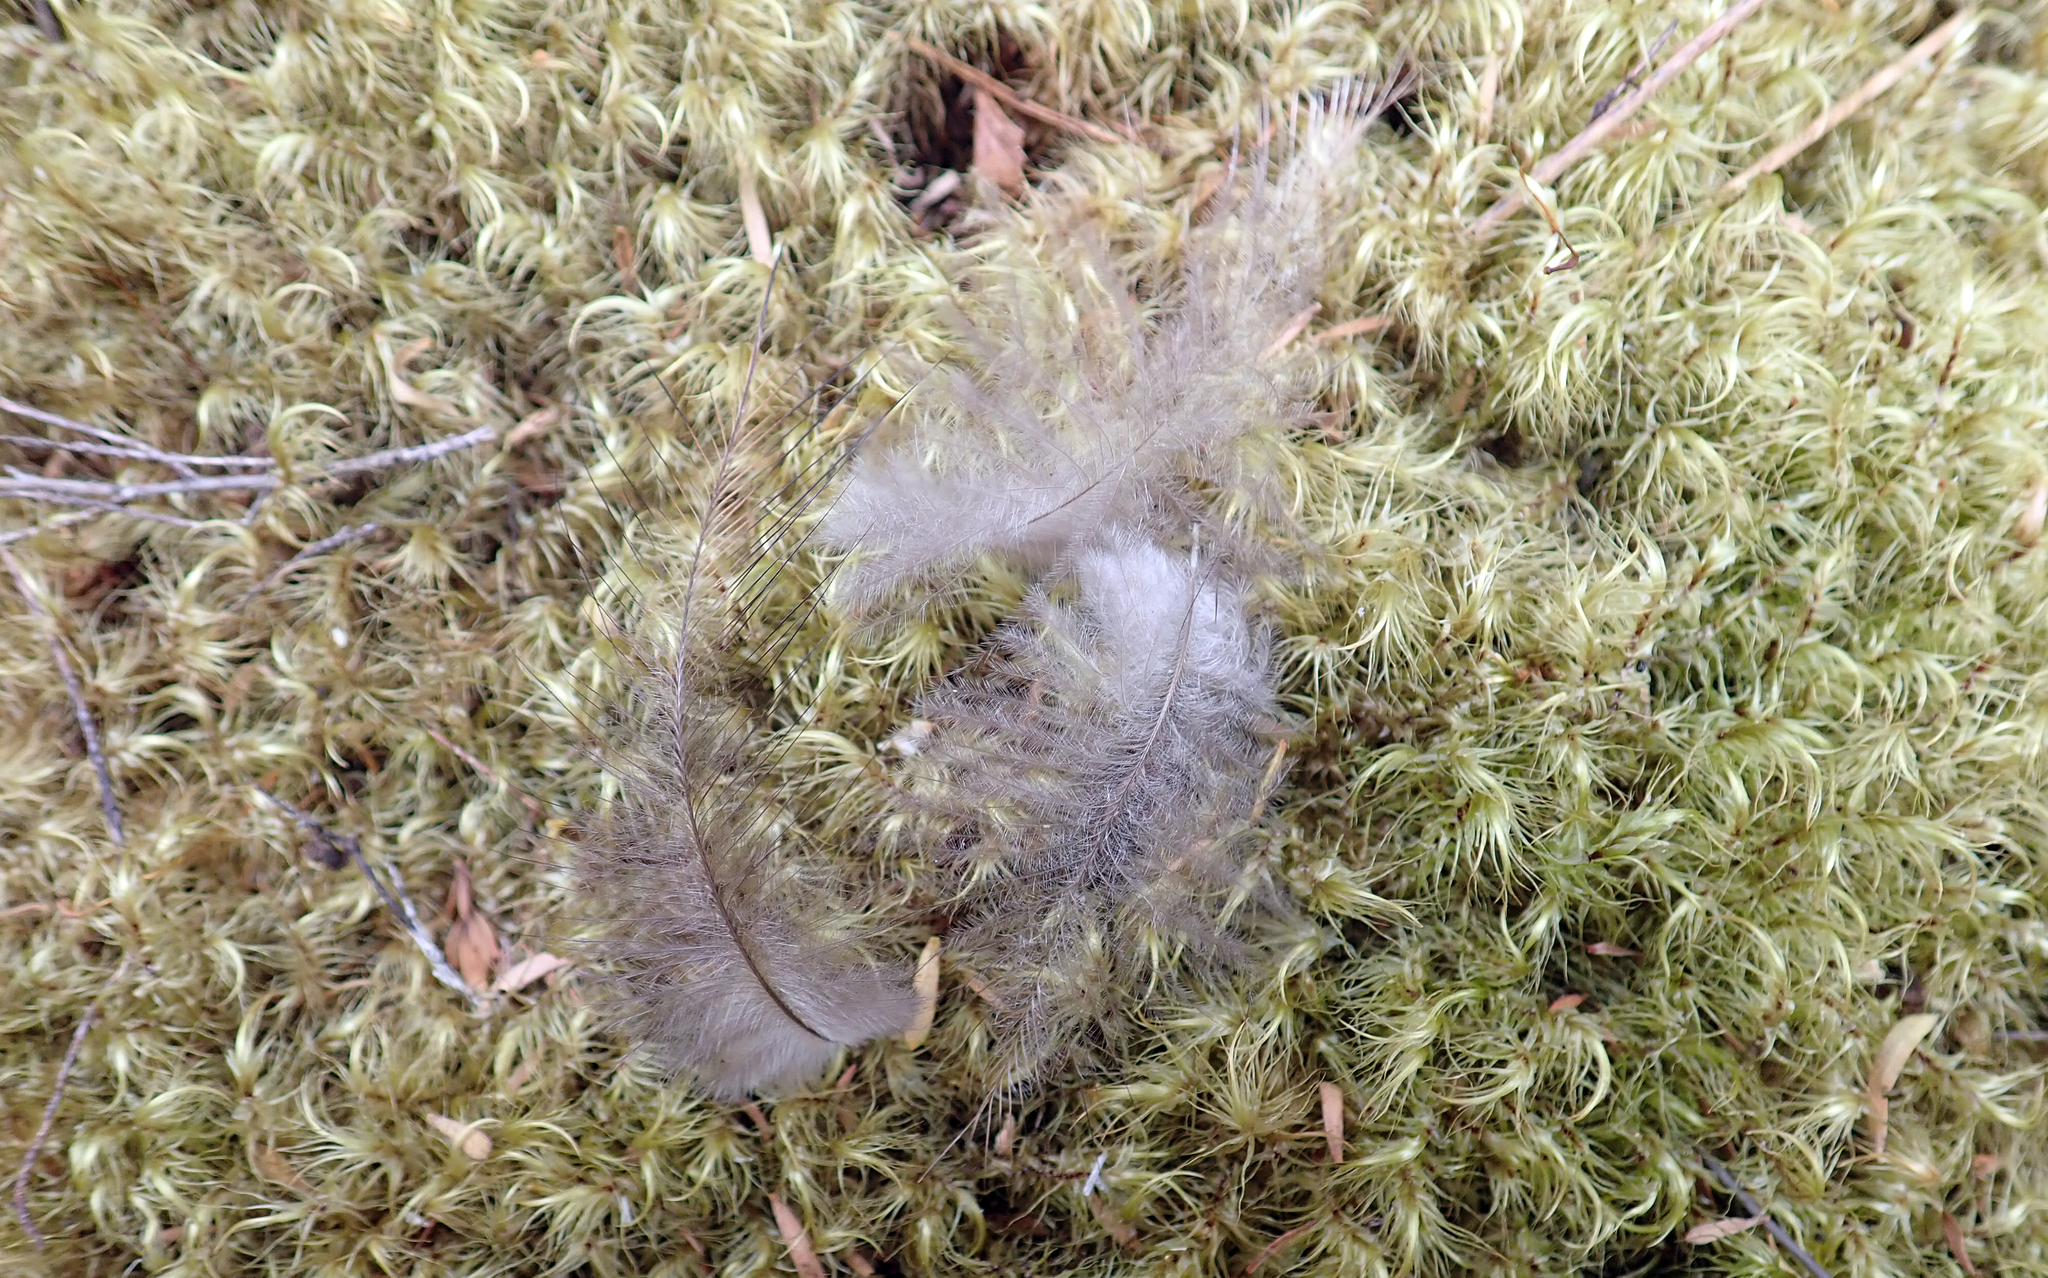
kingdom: Animalia
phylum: Chordata
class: Aves
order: Apterygiformes
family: Apterygidae
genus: Apteryx
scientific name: Apteryx mantelli
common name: North island brown kiwi
